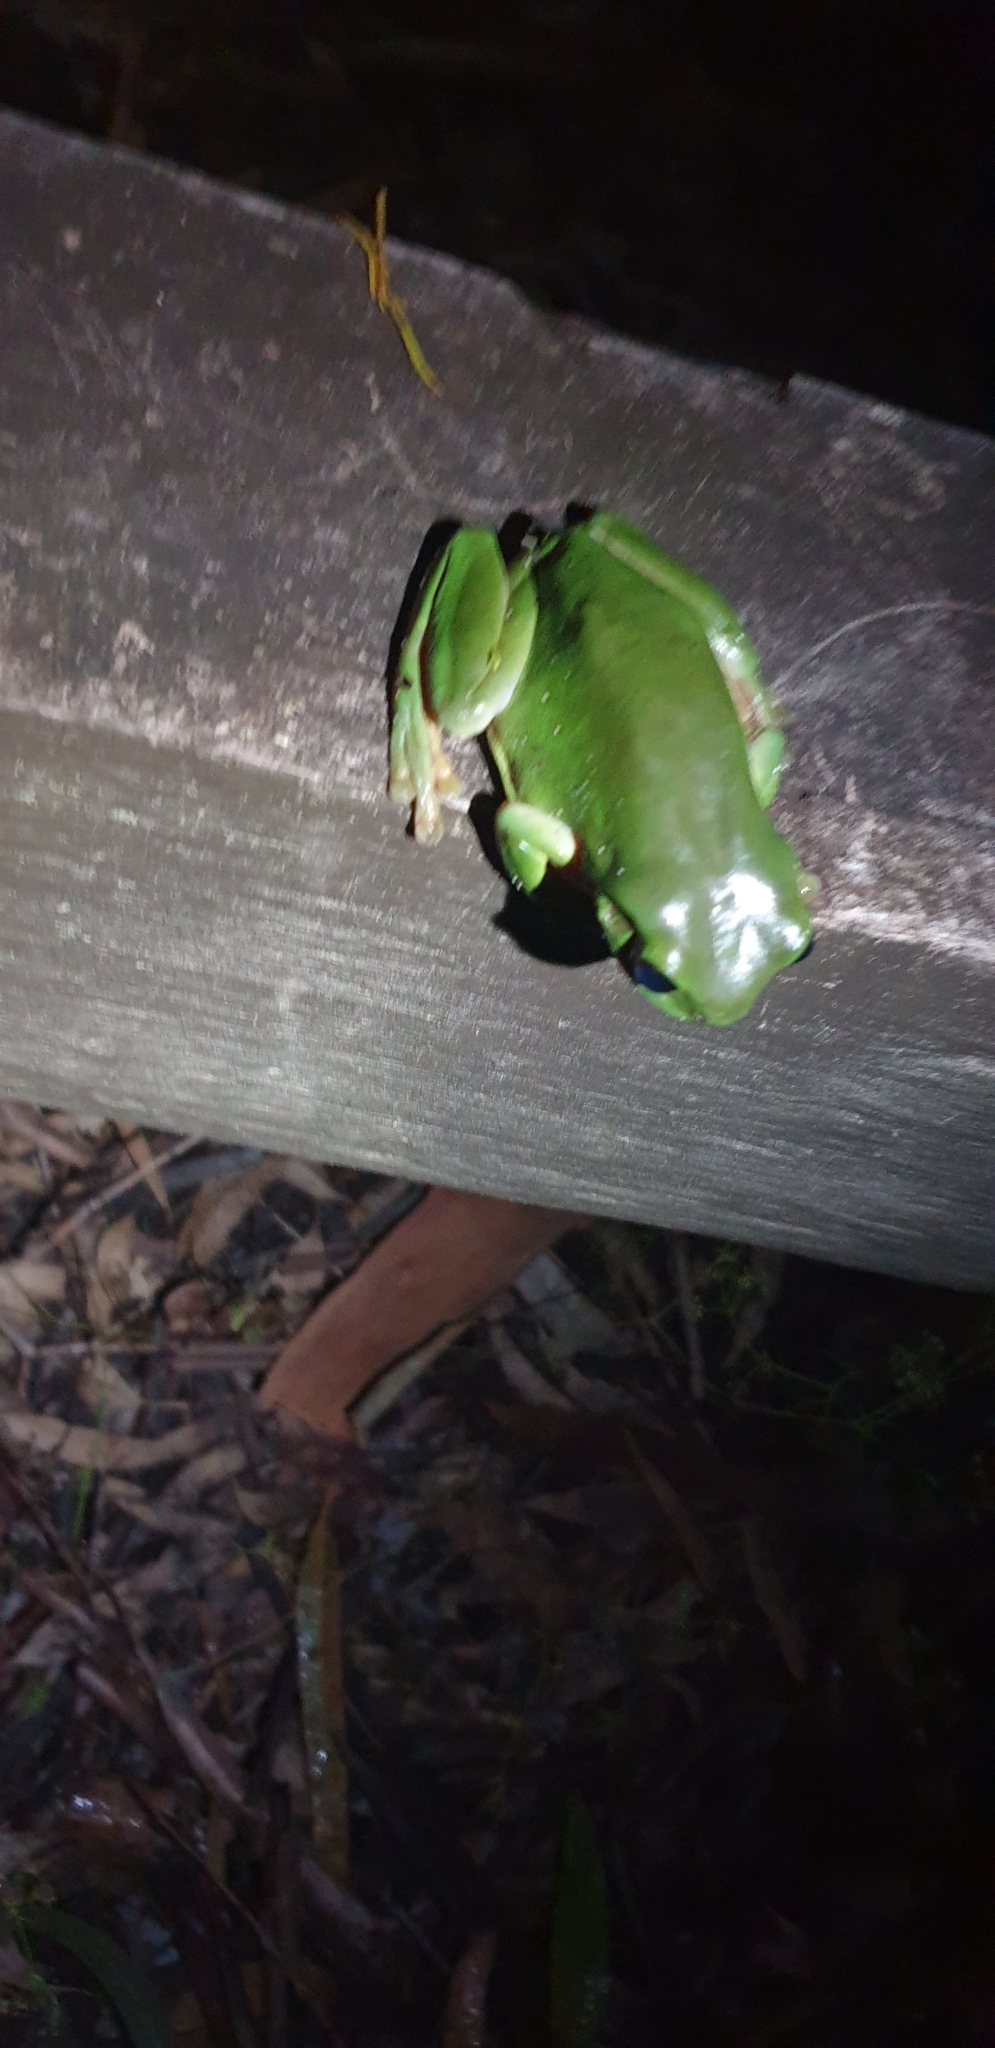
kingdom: Animalia
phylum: Chordata
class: Amphibia
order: Anura
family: Pelodryadidae
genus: Ranoidea
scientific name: Ranoidea caerulea
